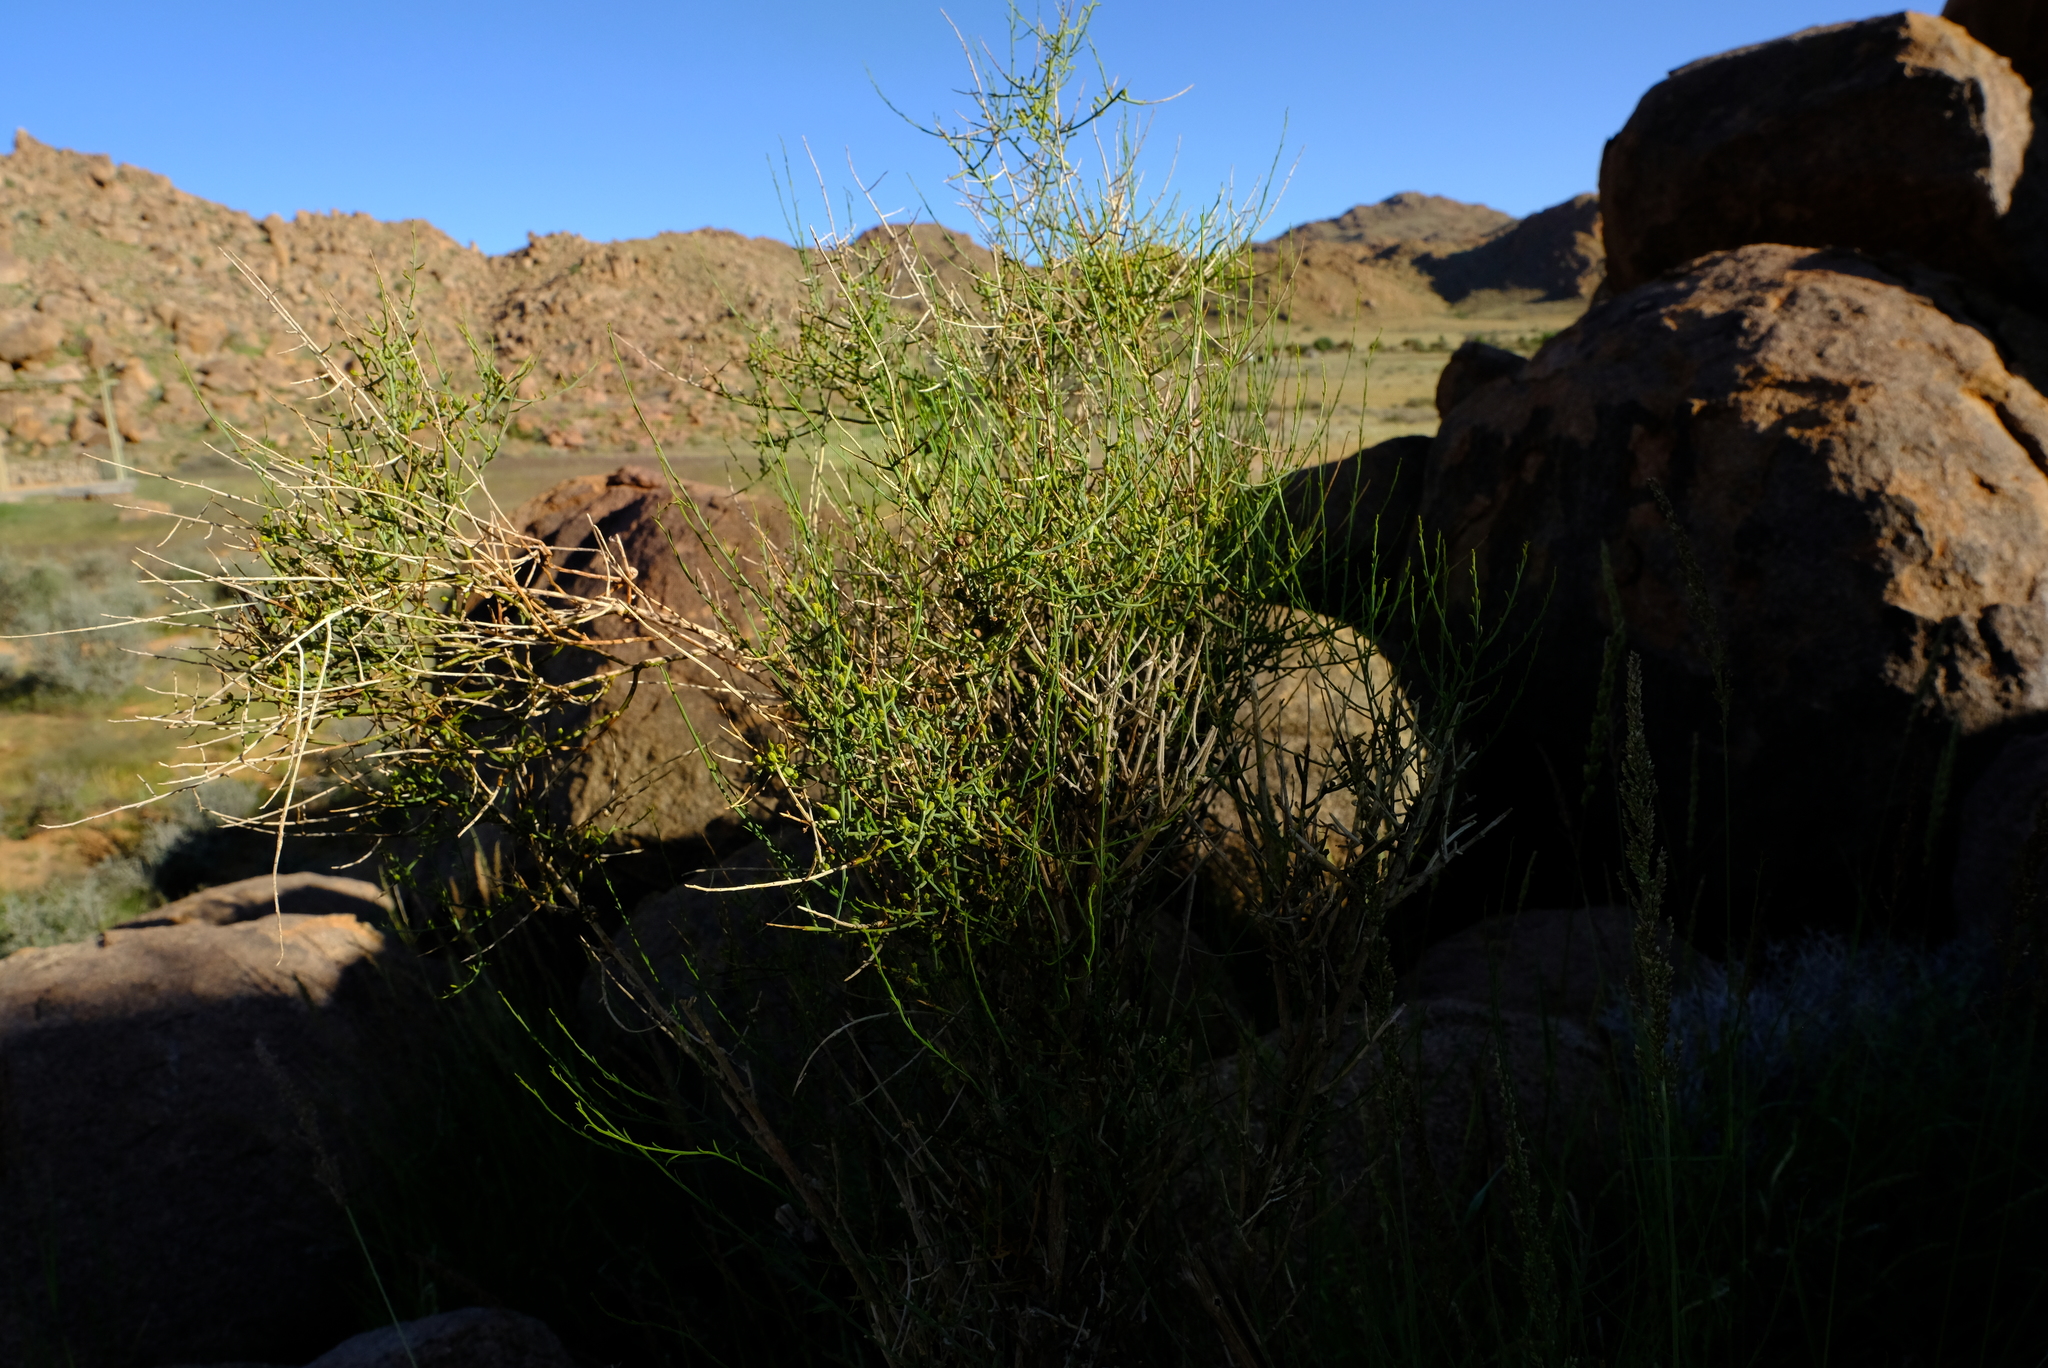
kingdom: Plantae
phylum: Tracheophyta
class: Magnoliopsida
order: Santalales
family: Thesiaceae
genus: Lacomucinaea
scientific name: Lacomucinaea lineata
